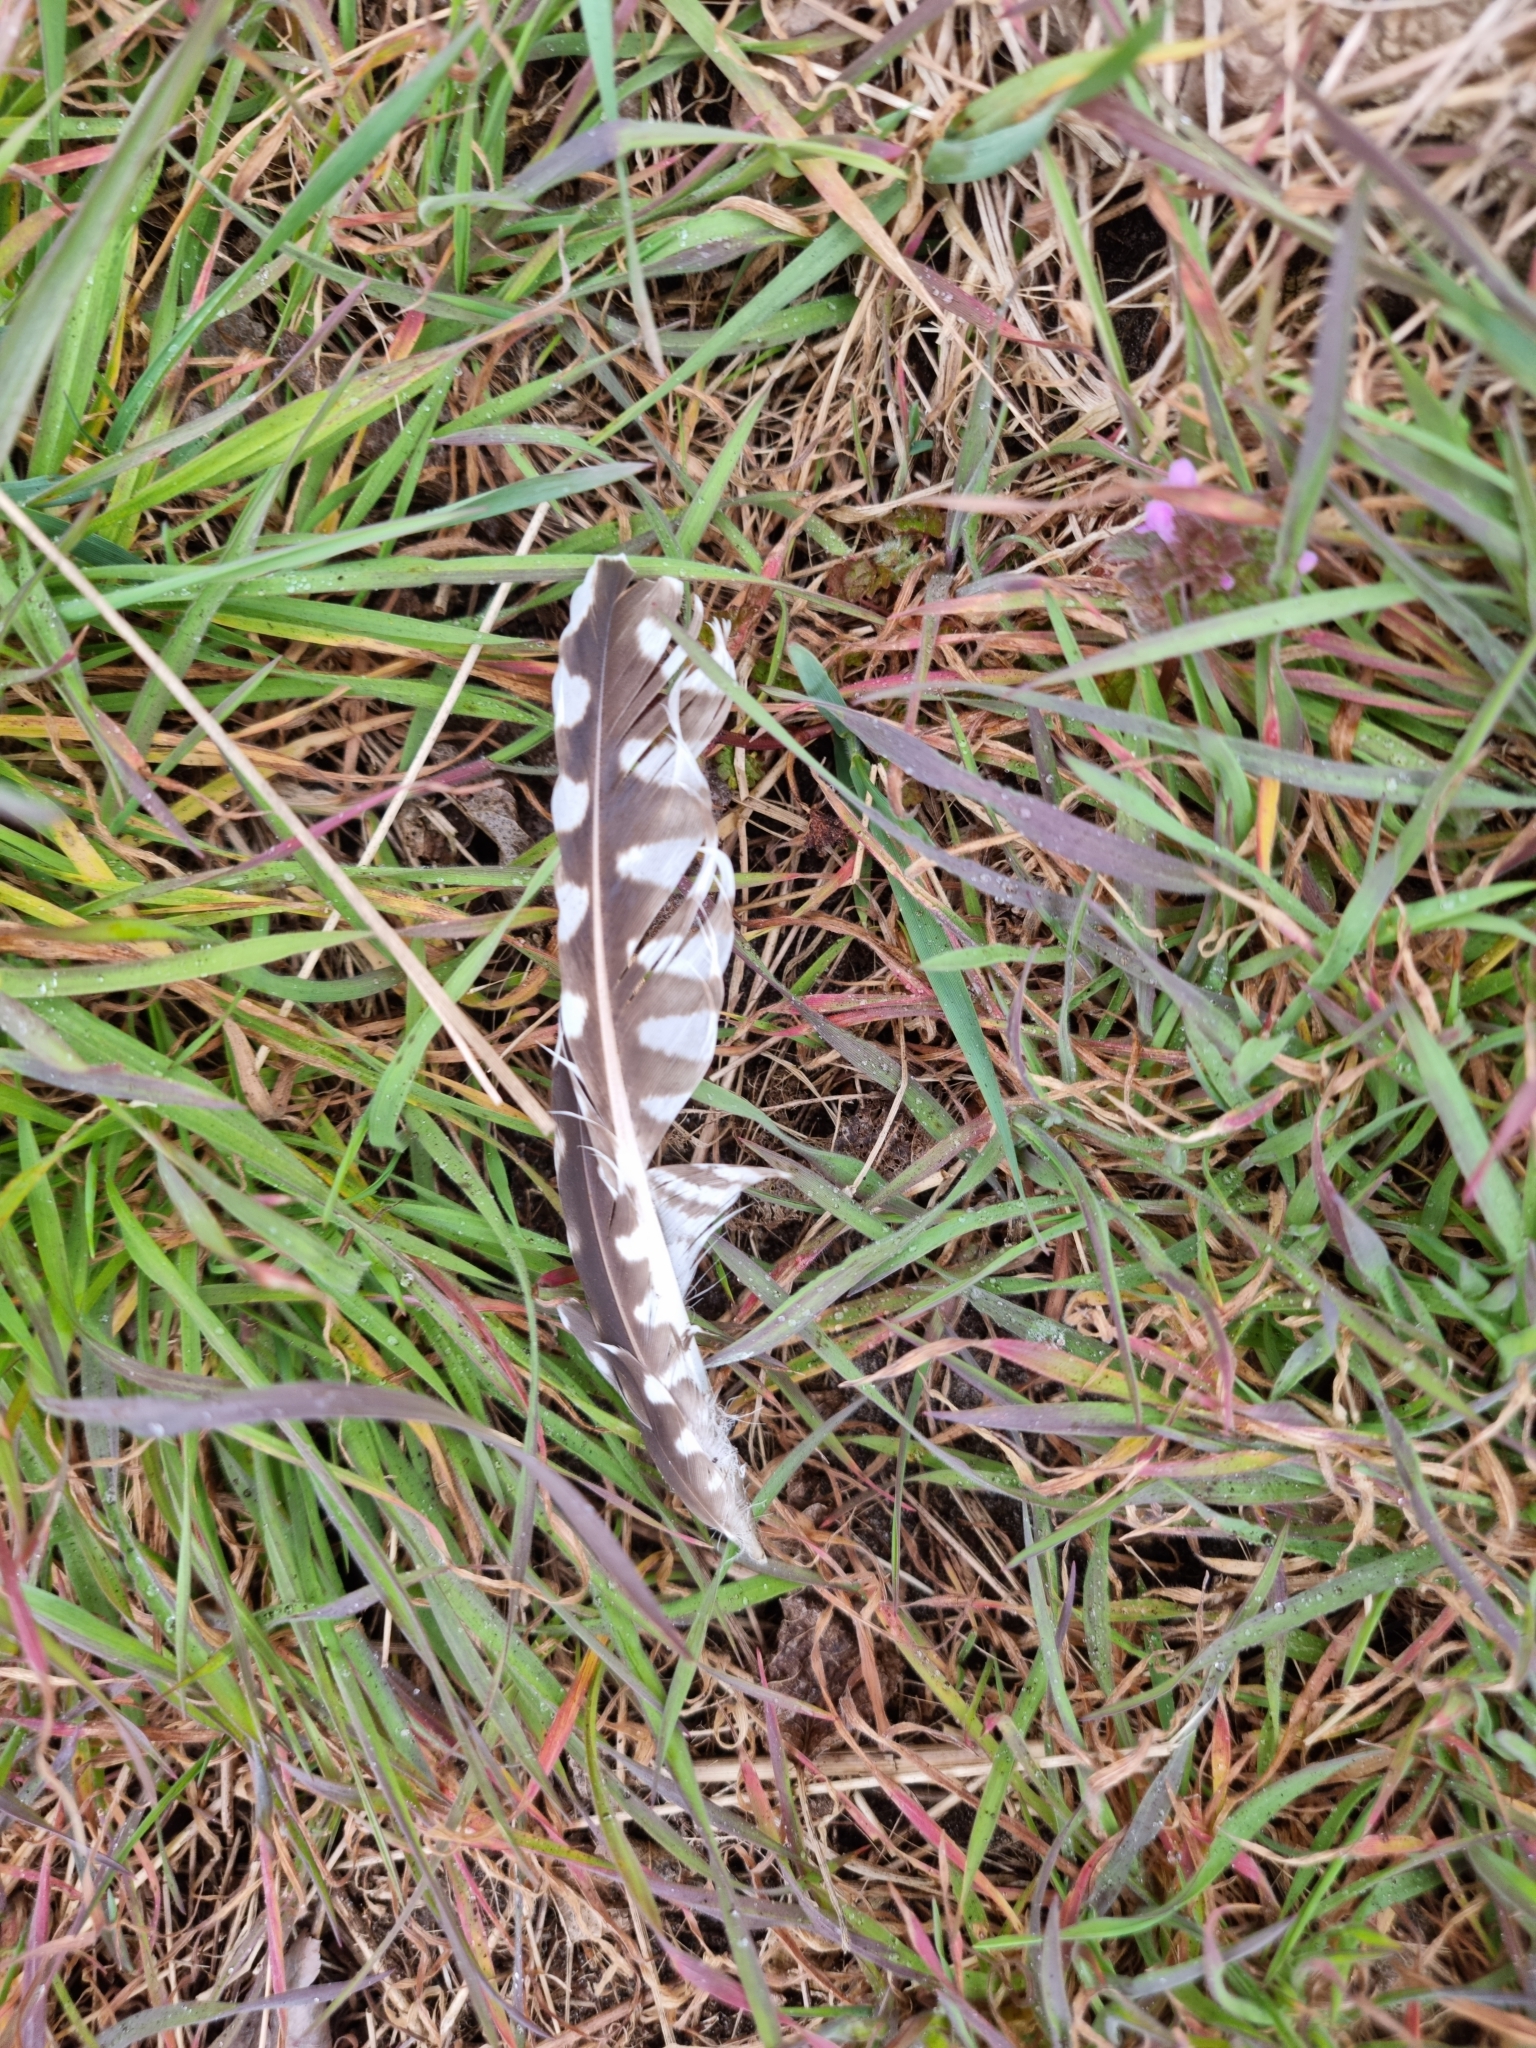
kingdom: Animalia
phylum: Chordata
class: Aves
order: Charadriiformes
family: Scolopacidae
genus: Numenius
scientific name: Numenius arquata
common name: Eurasian curlew
